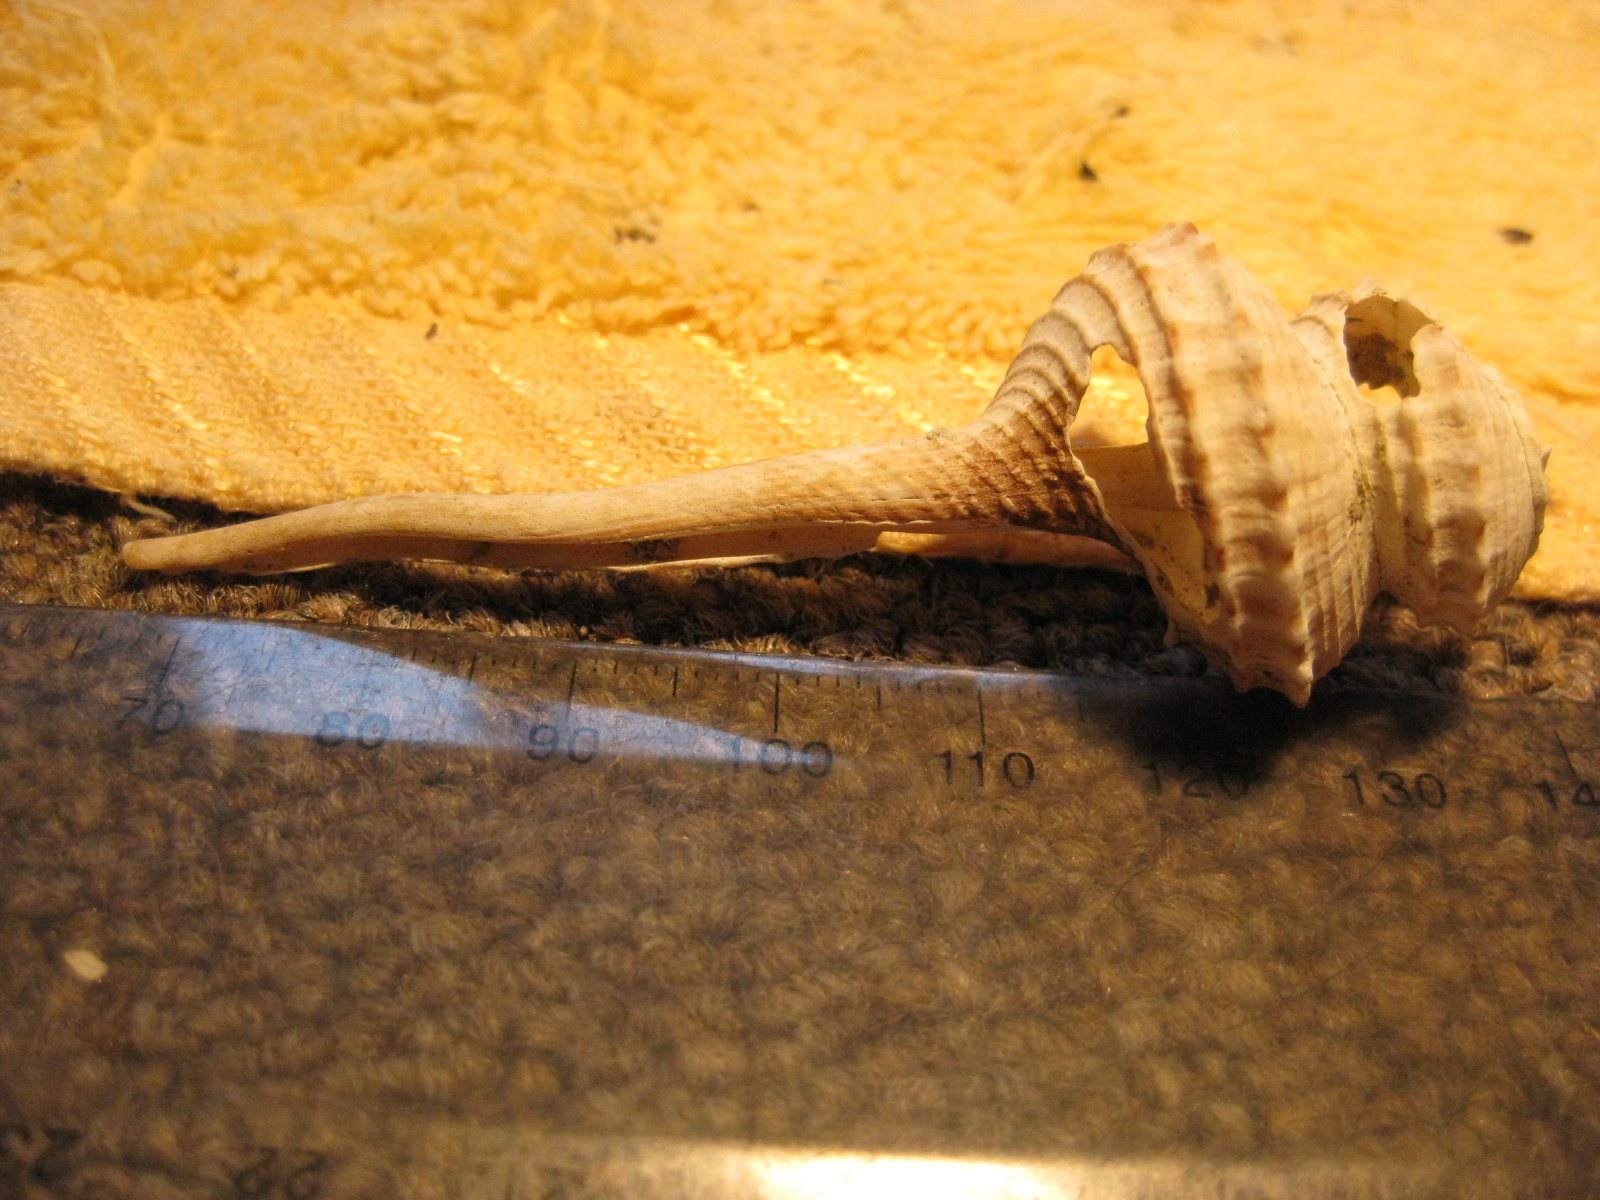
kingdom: Animalia
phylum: Mollusca
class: Gastropoda
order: Neogastropoda
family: Columbariidae
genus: Coluzea
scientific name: Coluzea spiralis
